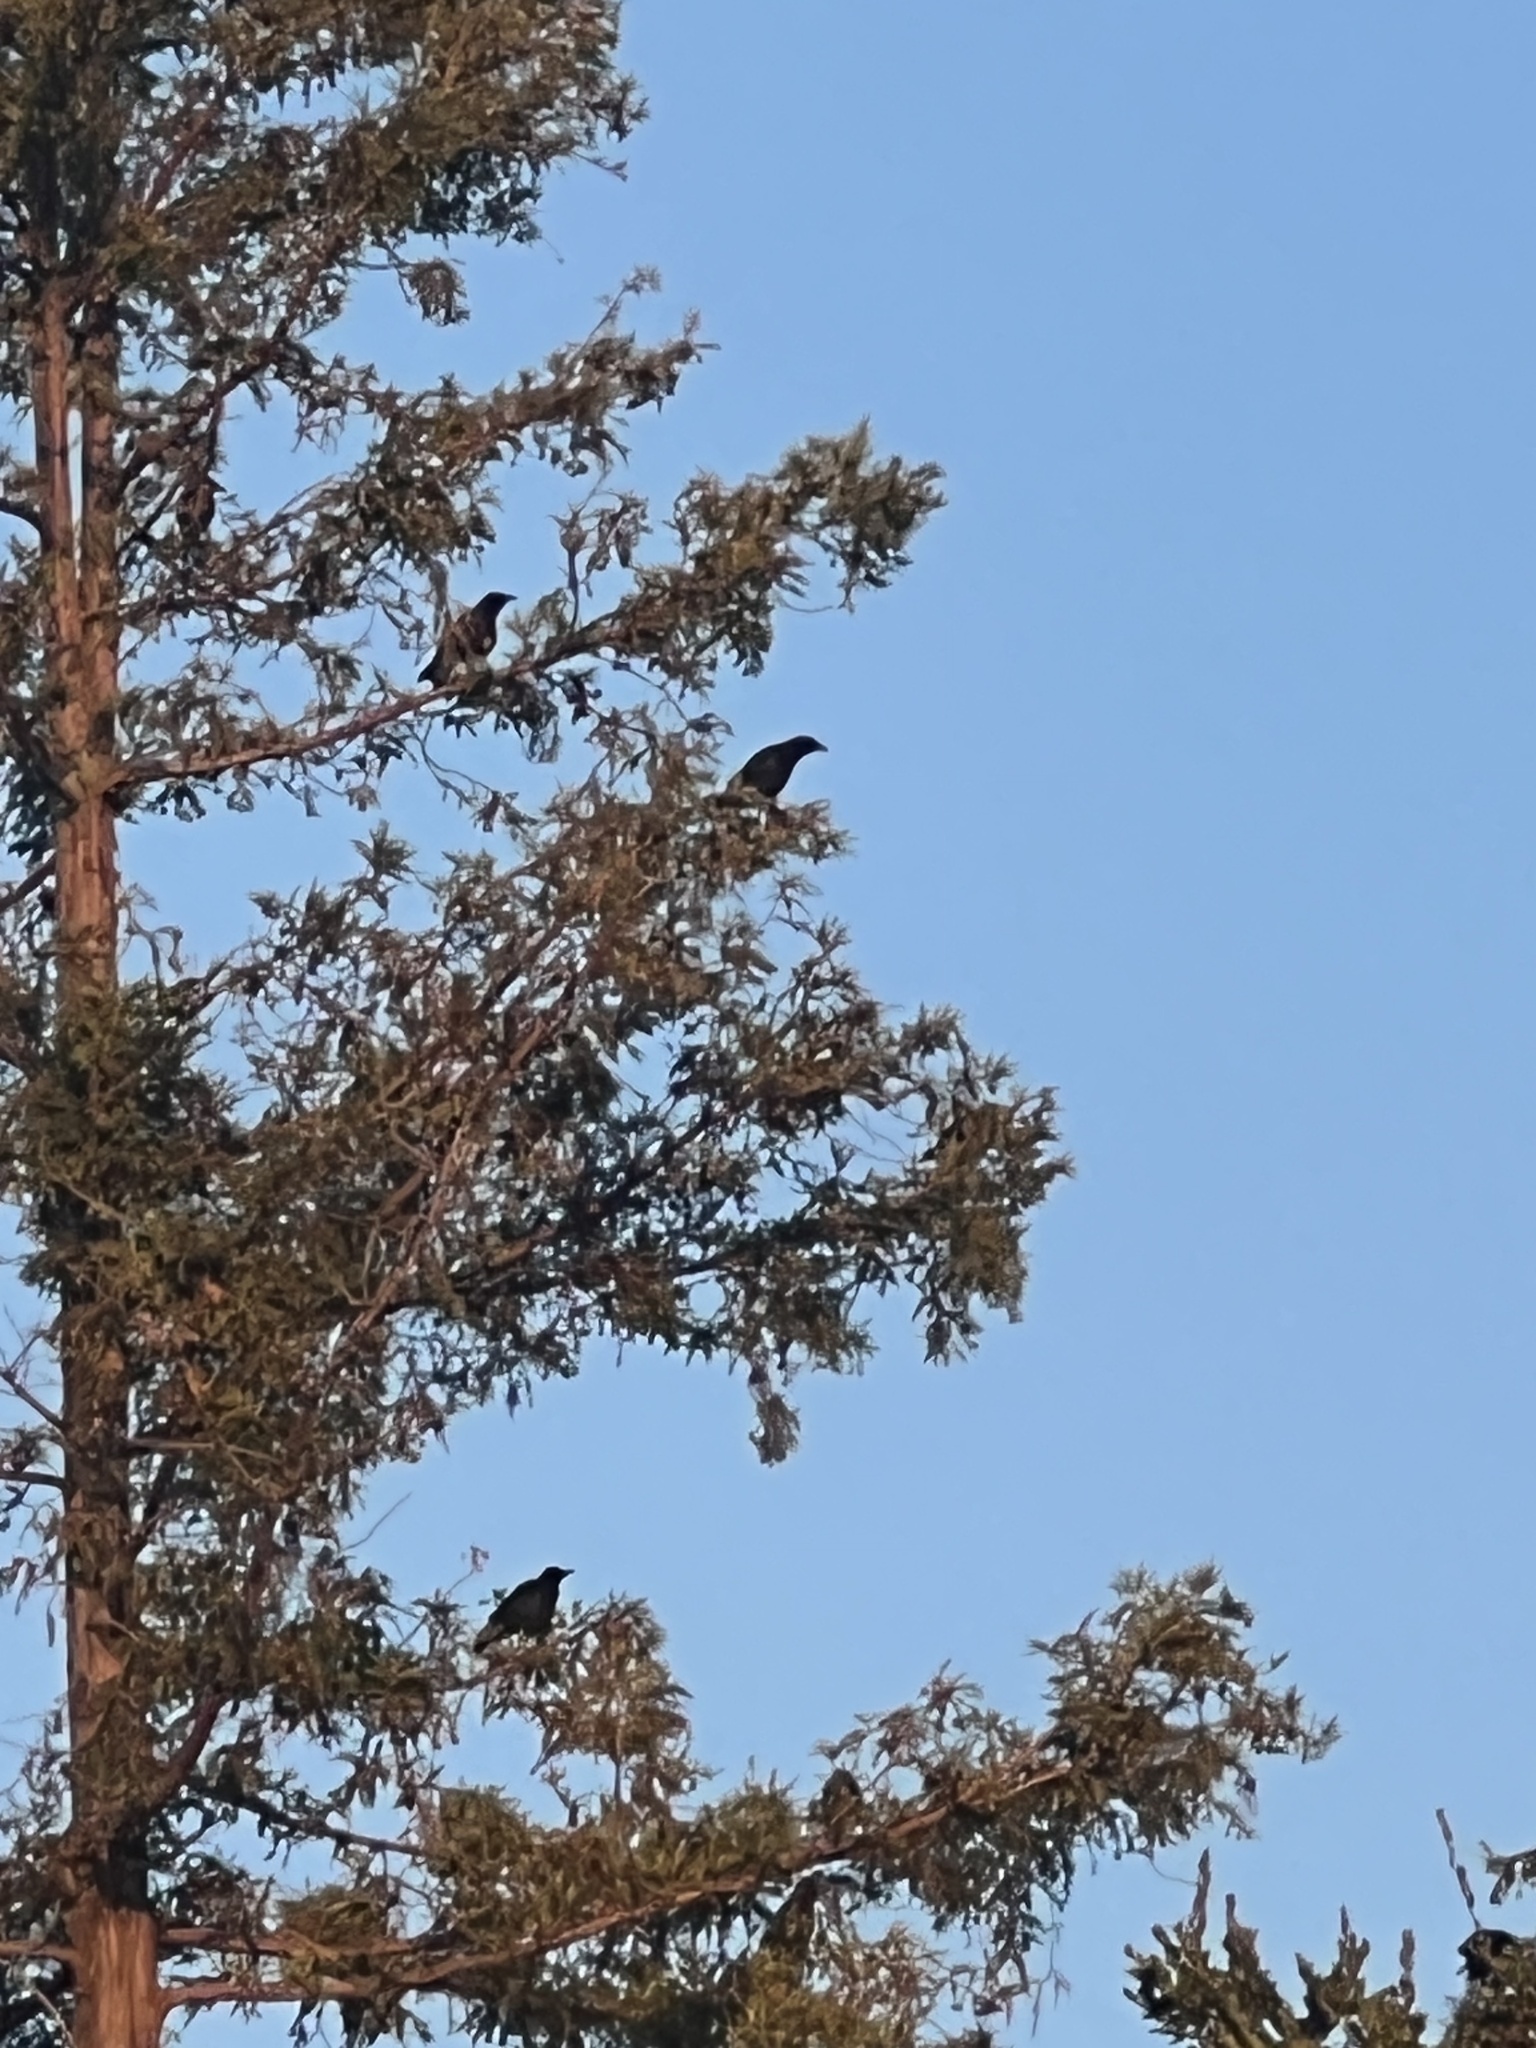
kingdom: Animalia
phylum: Chordata
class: Aves
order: Passeriformes
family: Corvidae
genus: Corvus
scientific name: Corvus brachyrhynchos
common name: American crow
